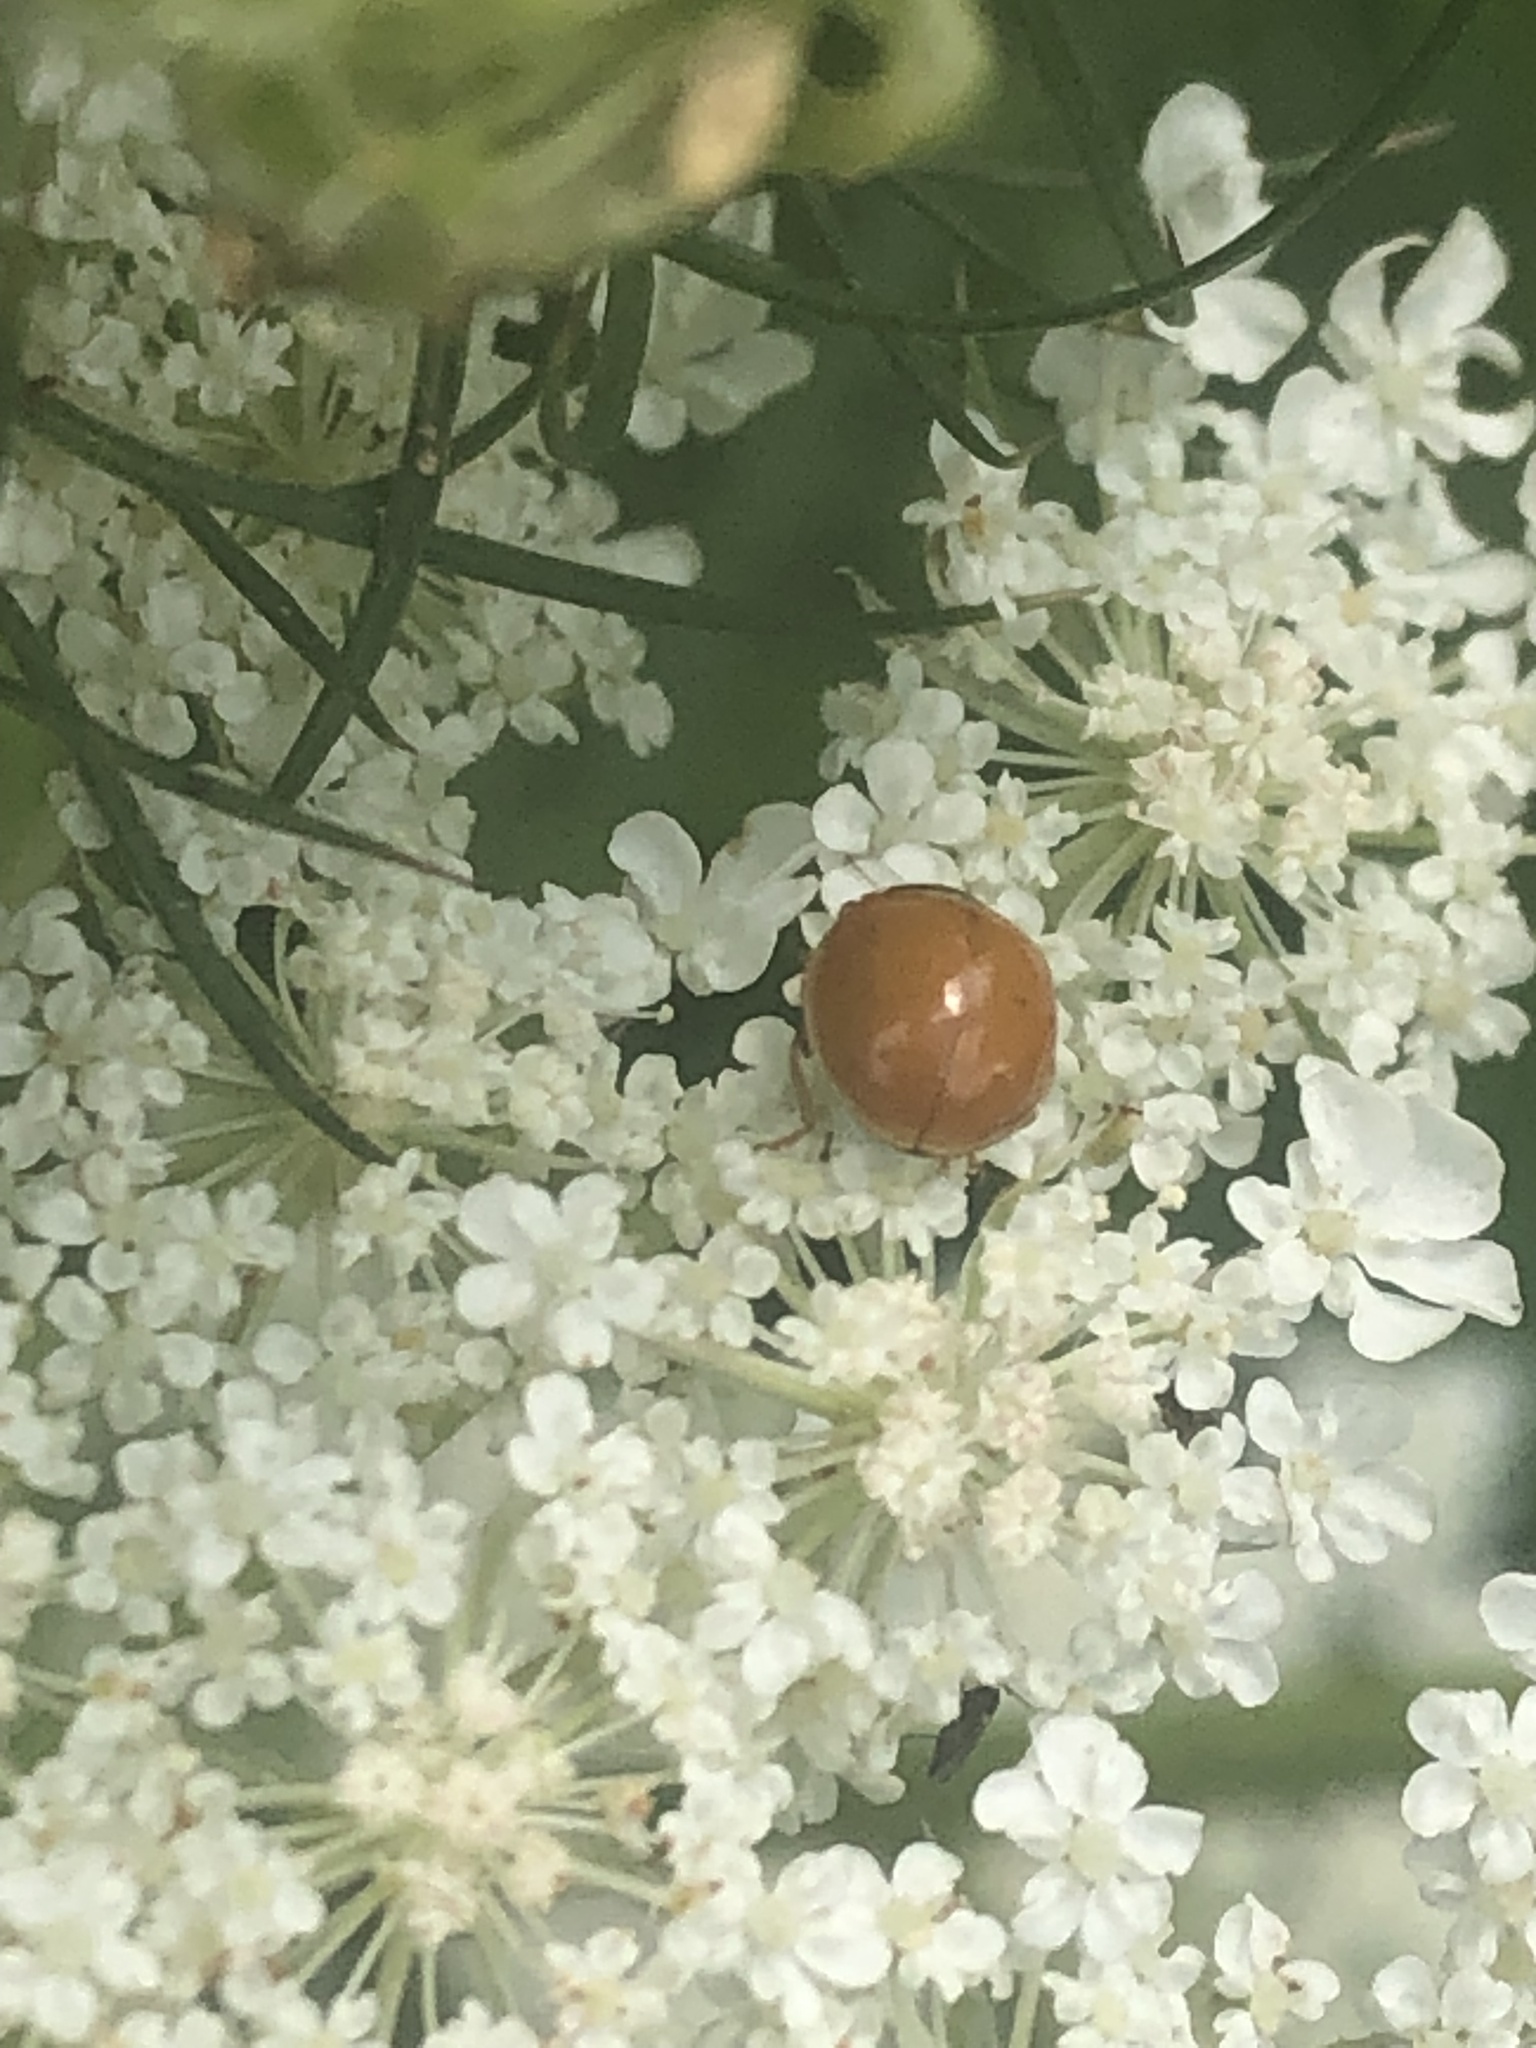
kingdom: Animalia
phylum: Arthropoda
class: Insecta
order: Coleoptera
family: Coccinellidae
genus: Cycloneda
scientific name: Cycloneda munda
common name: Polished lady beetle
